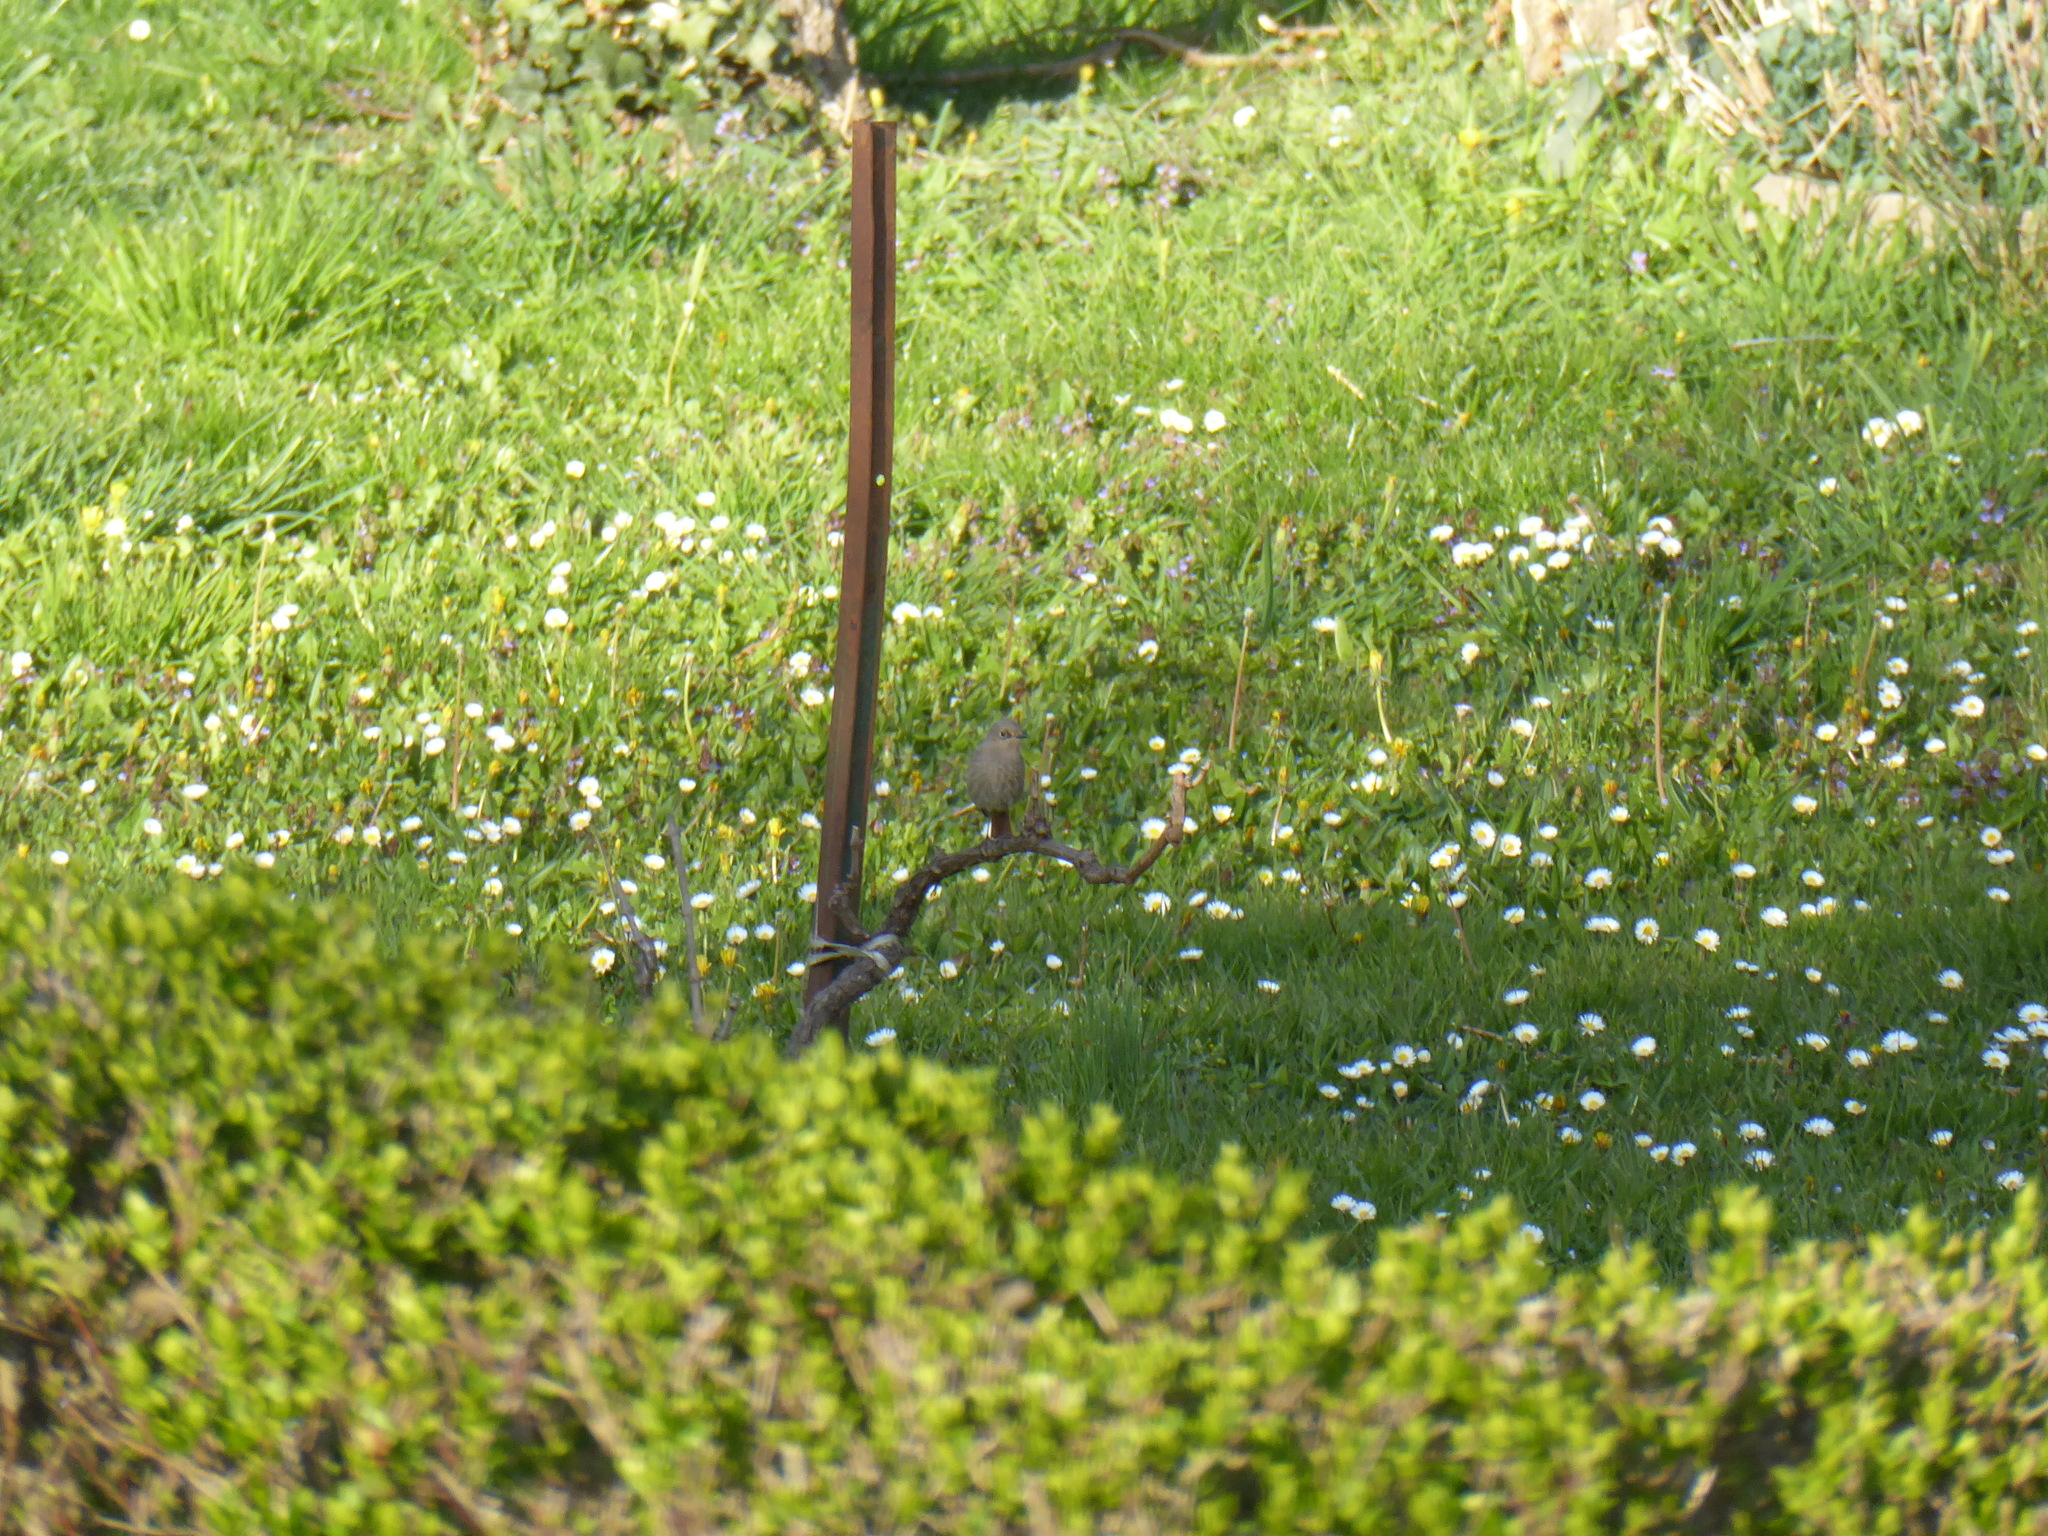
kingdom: Animalia
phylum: Chordata
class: Aves
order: Passeriformes
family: Muscicapidae
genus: Phoenicurus
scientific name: Phoenicurus ochruros
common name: Black redstart
